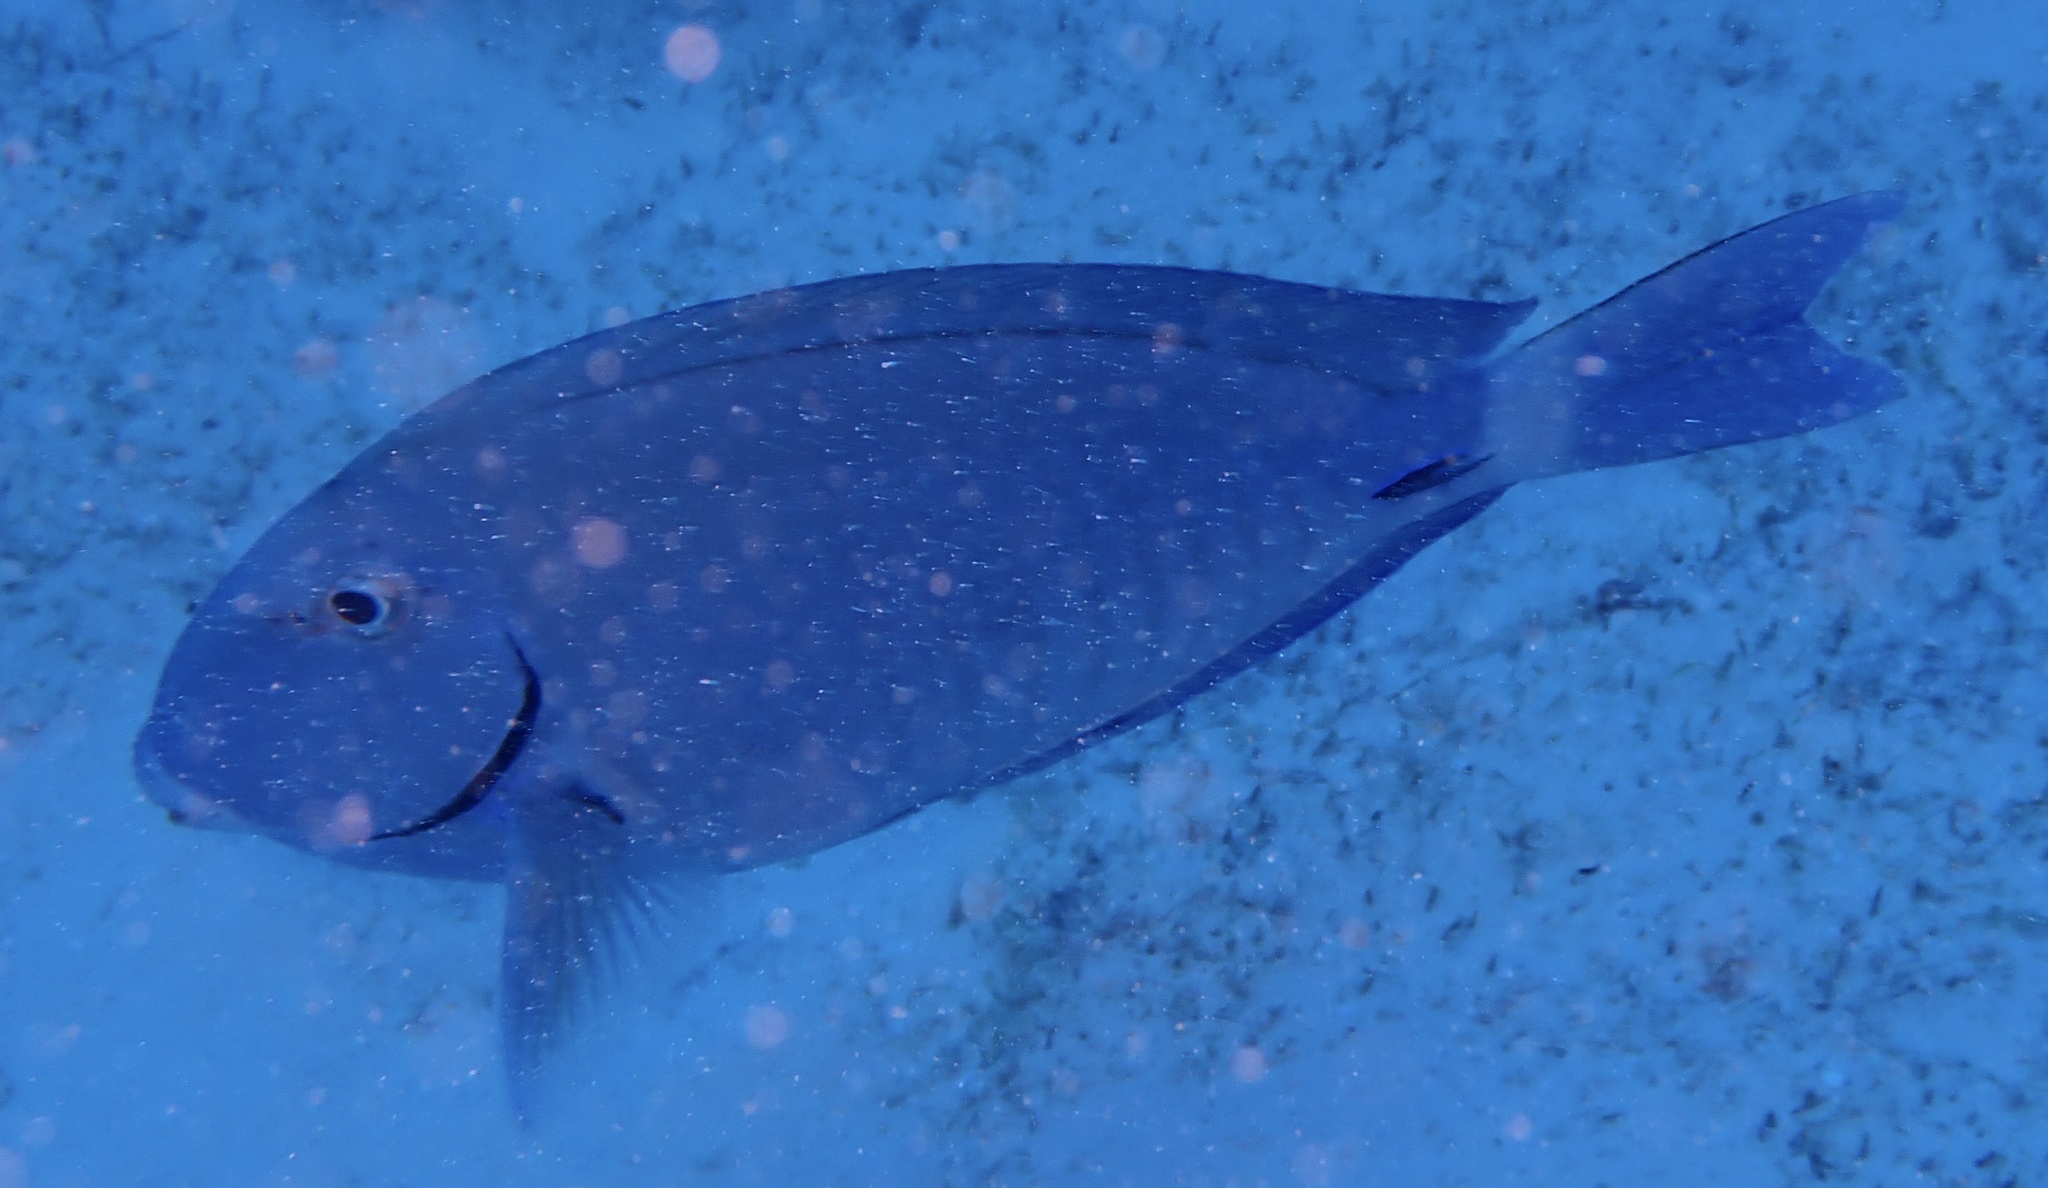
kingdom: Animalia
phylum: Chordata
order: Perciformes
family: Acanthuridae
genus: Acanthurus
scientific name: Acanthurus bahianus
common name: Ocean surgeon
